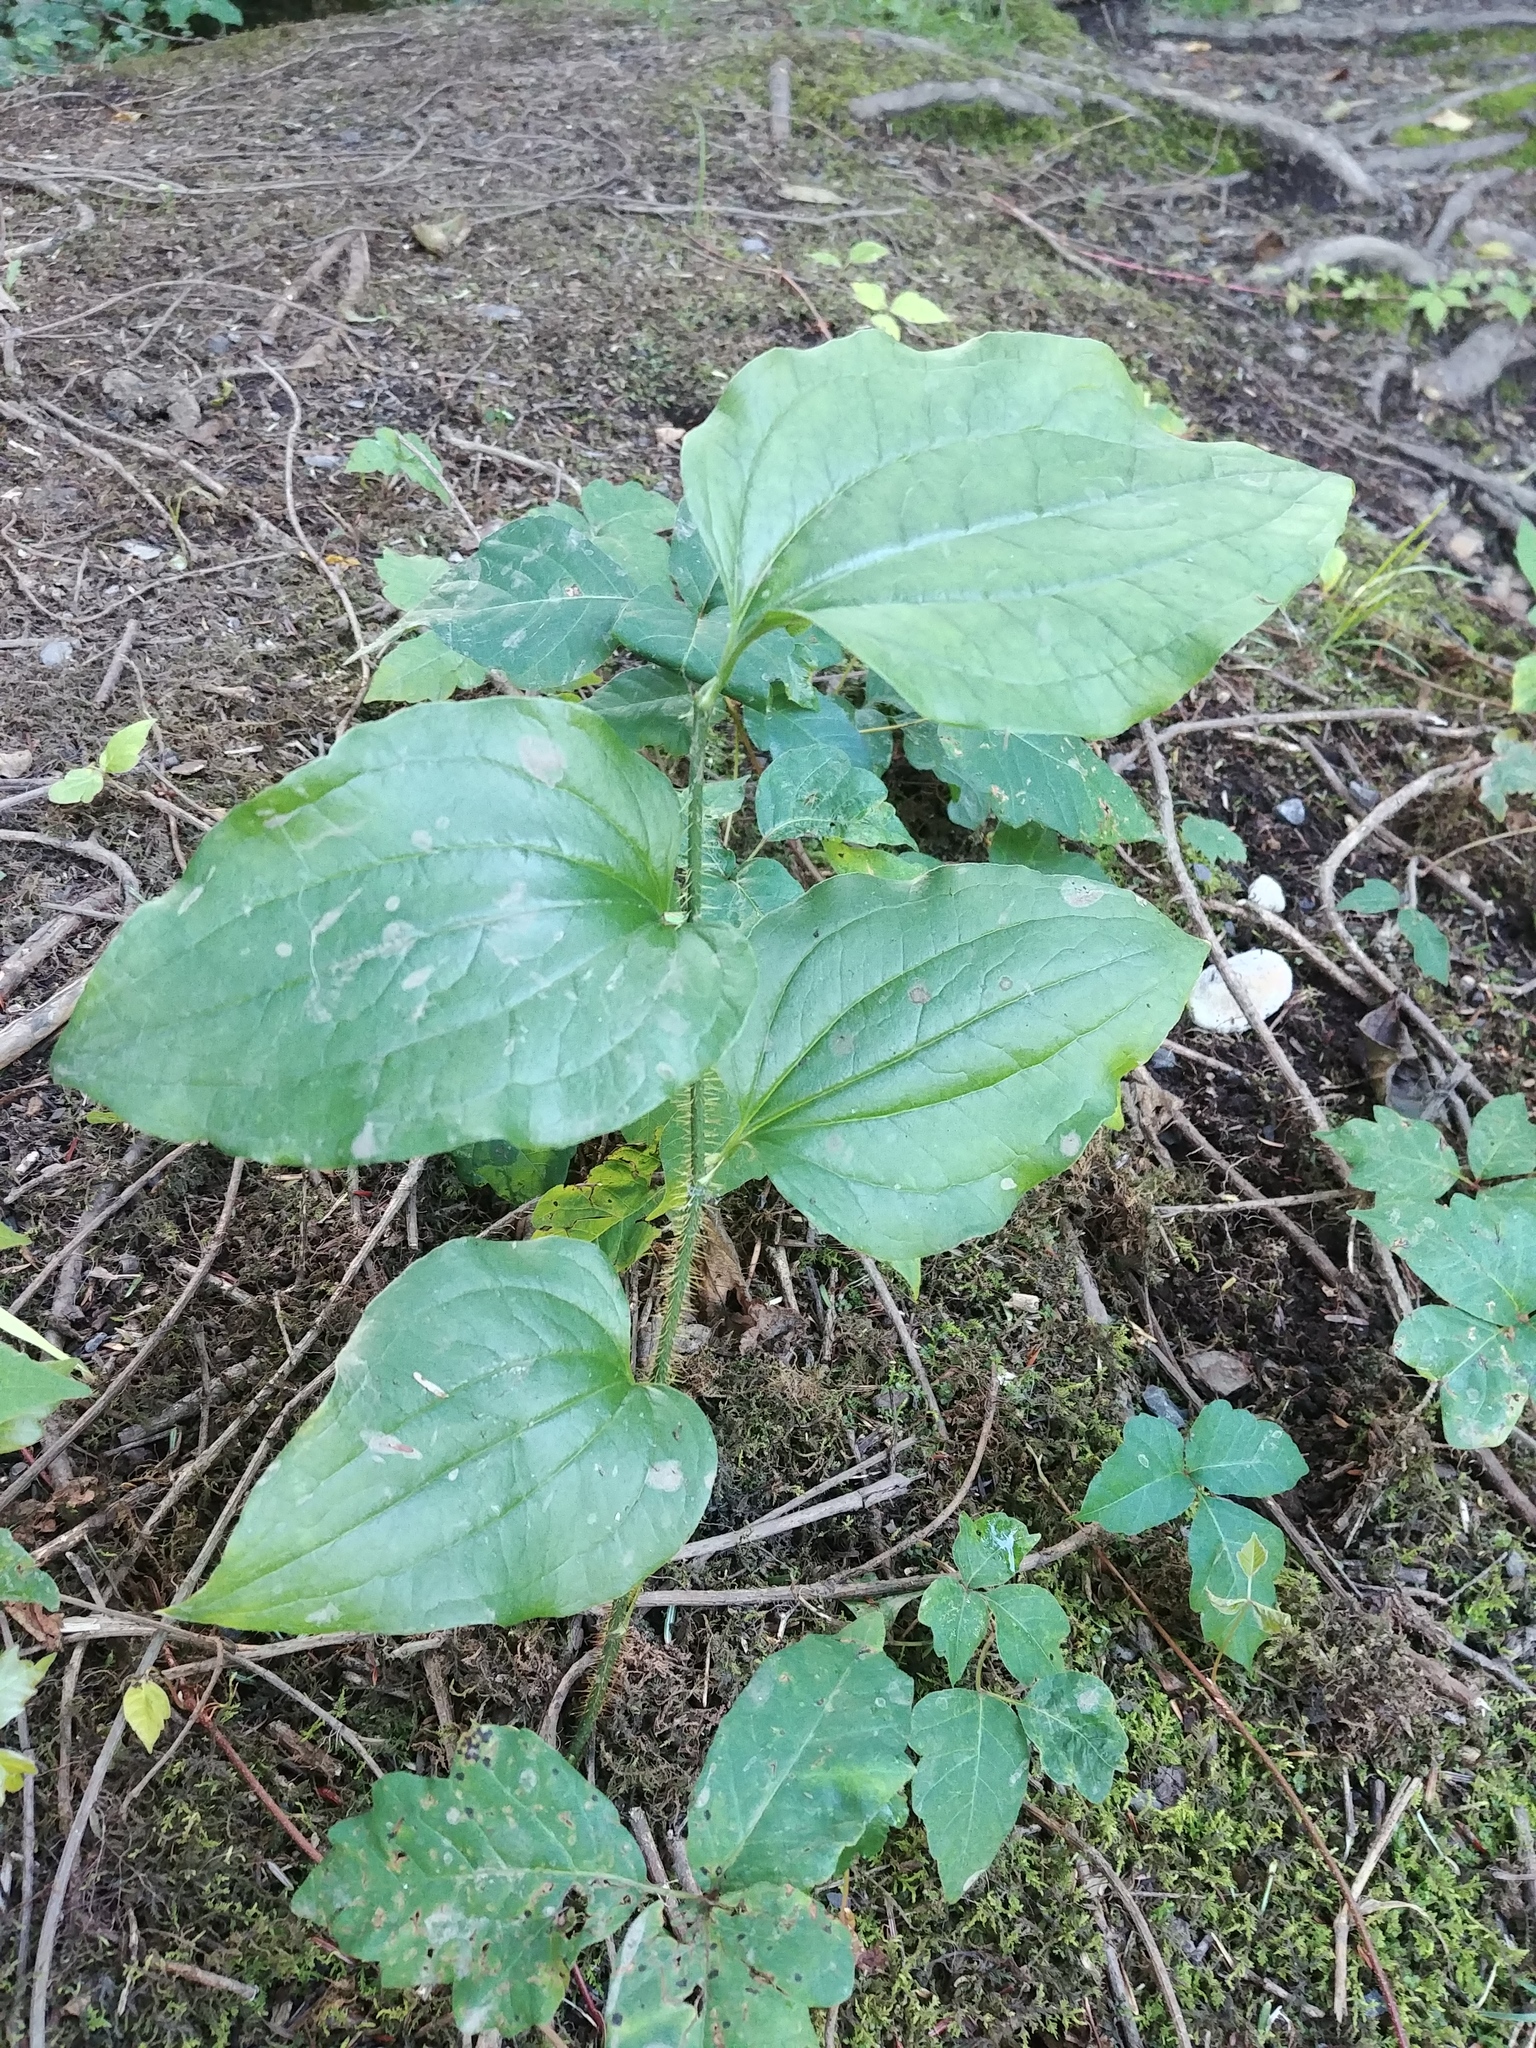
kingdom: Plantae
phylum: Tracheophyta
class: Liliopsida
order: Liliales
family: Smilacaceae
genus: Smilax
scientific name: Smilax tamnoides
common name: Hellfetter
